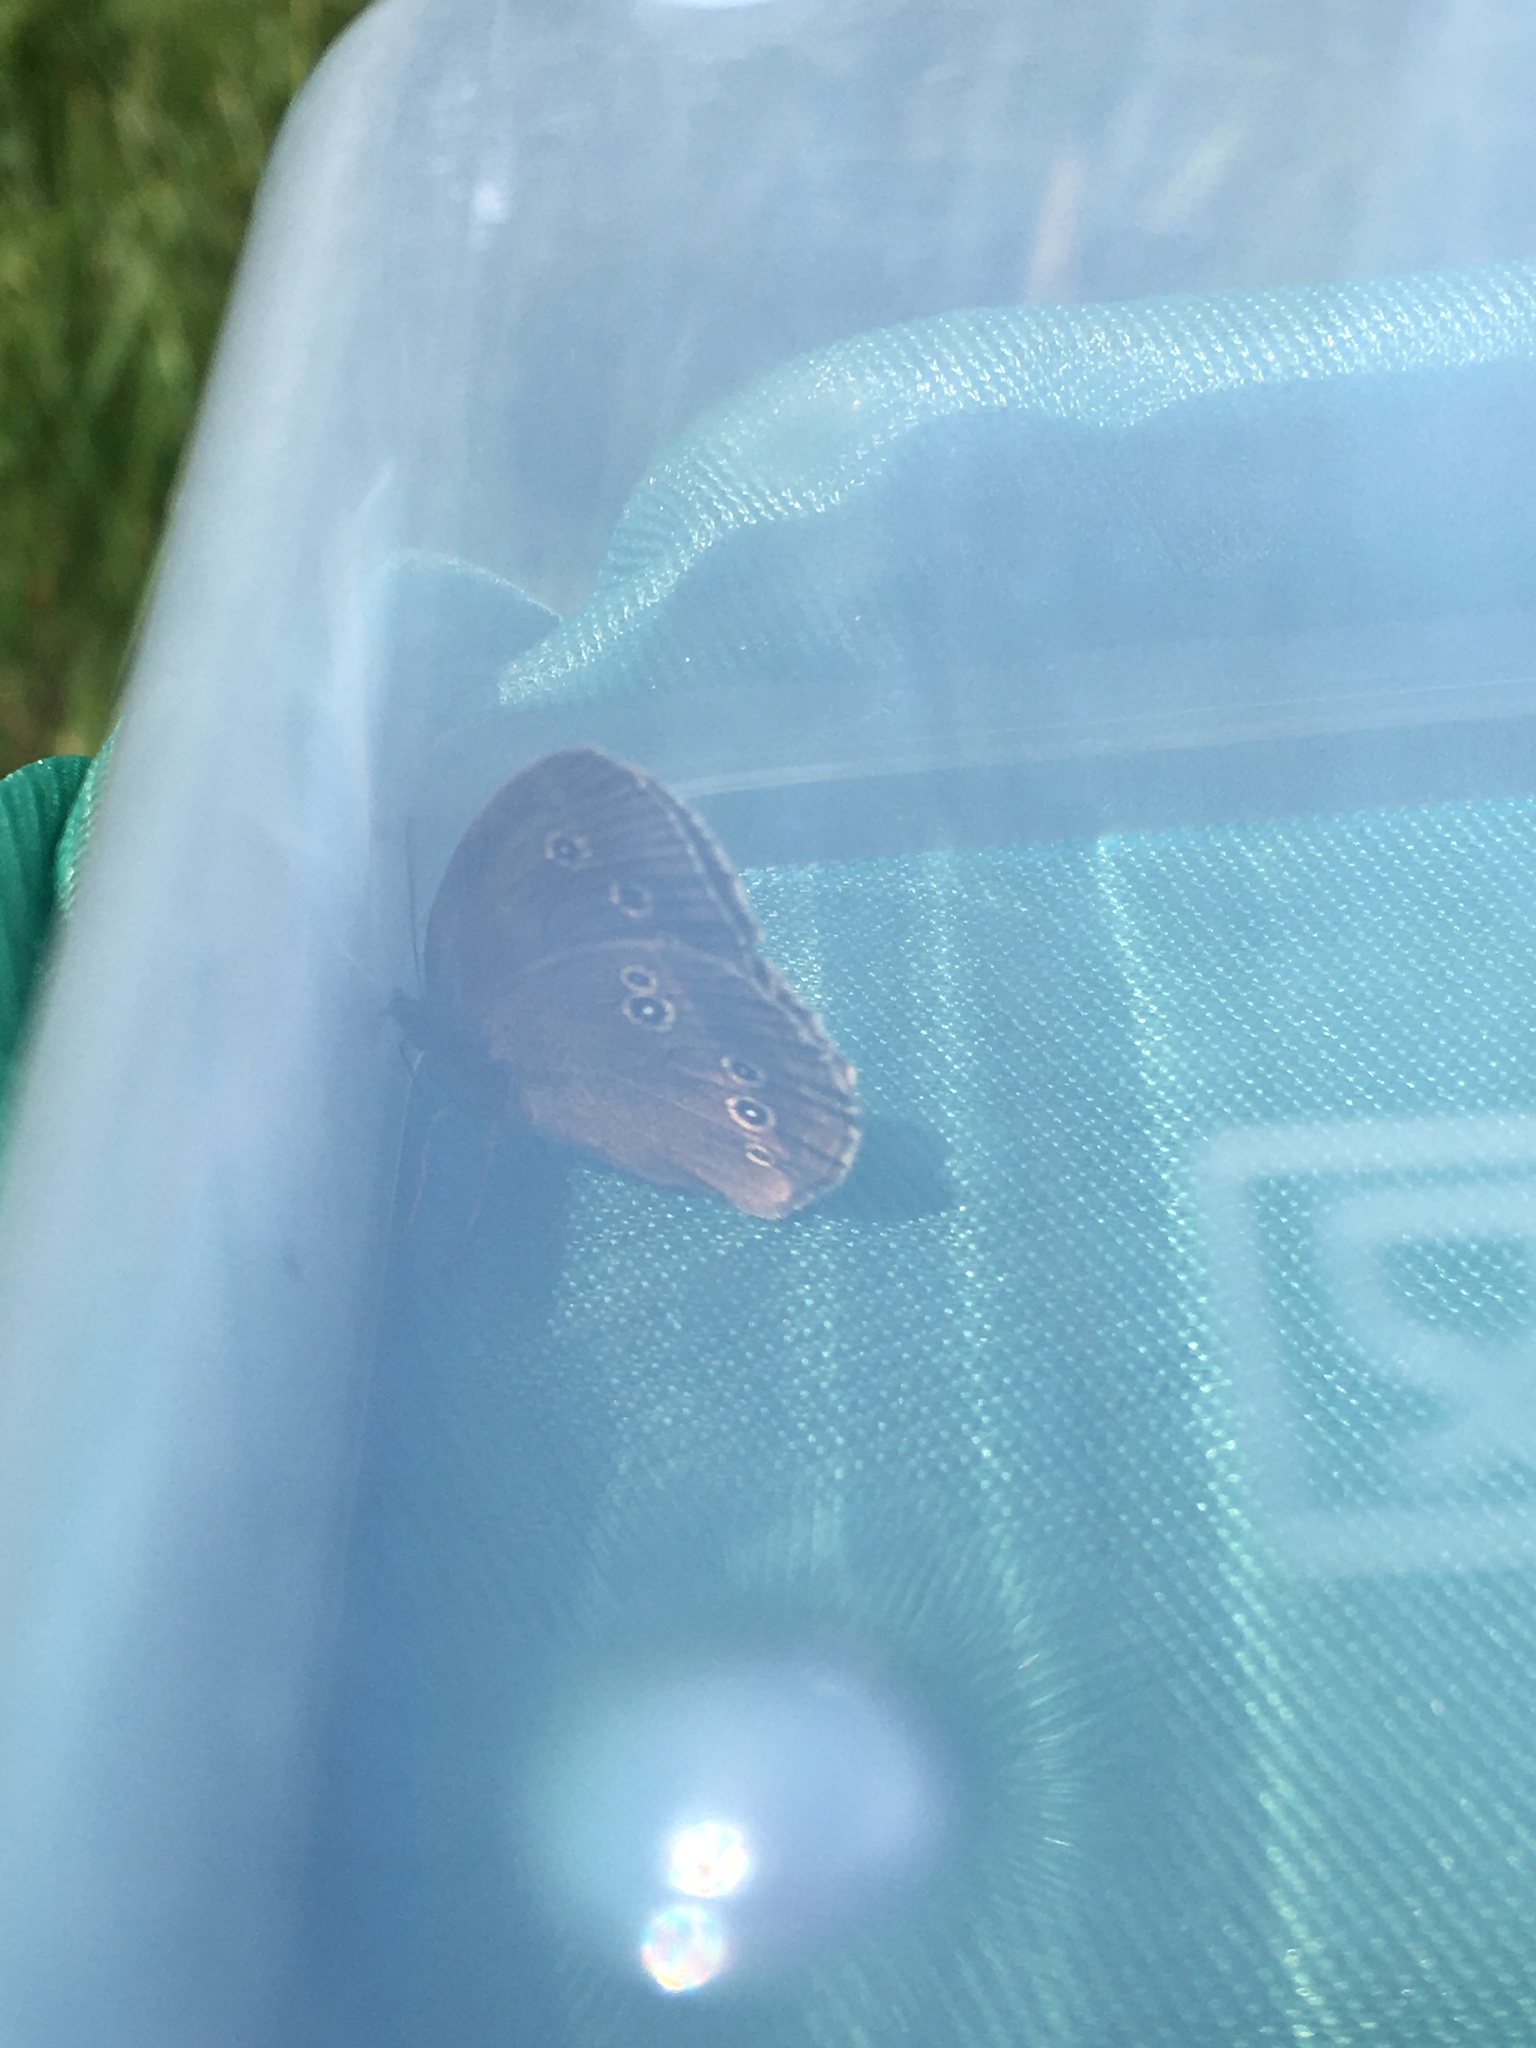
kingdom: Animalia
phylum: Arthropoda
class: Insecta
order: Lepidoptera
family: Nymphalidae
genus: Aphantopus
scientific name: Aphantopus hyperantus
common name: Ringlet
